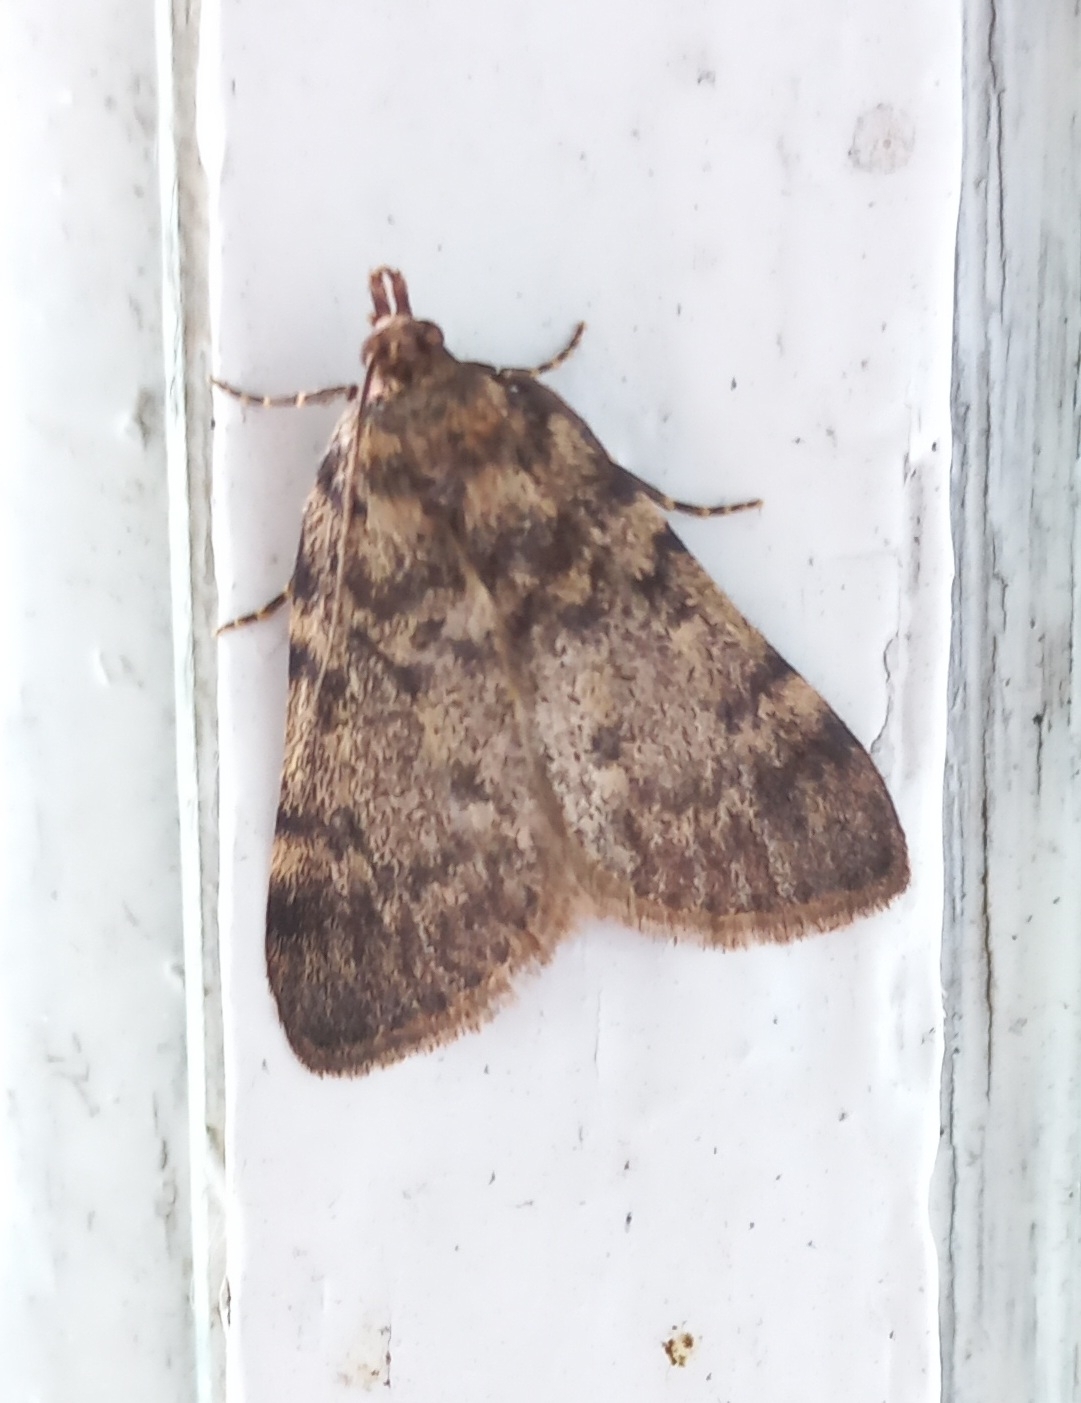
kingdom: Animalia
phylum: Arthropoda
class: Insecta
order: Lepidoptera
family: Pyralidae
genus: Aglossa
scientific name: Aglossa pinguinalis
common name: Large tabby
